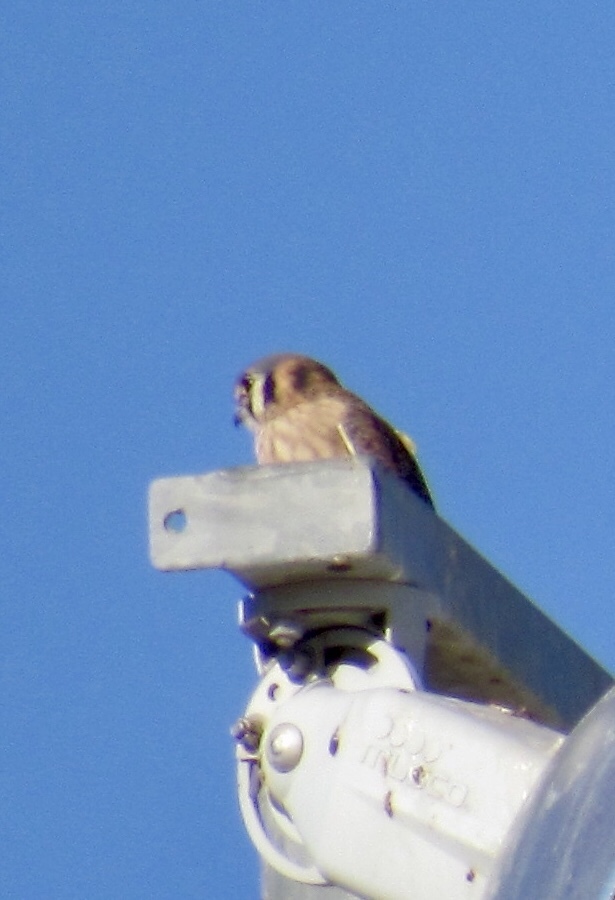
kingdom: Animalia
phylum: Chordata
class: Aves
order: Falconiformes
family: Falconidae
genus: Falco
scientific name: Falco sparverius
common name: American kestrel
